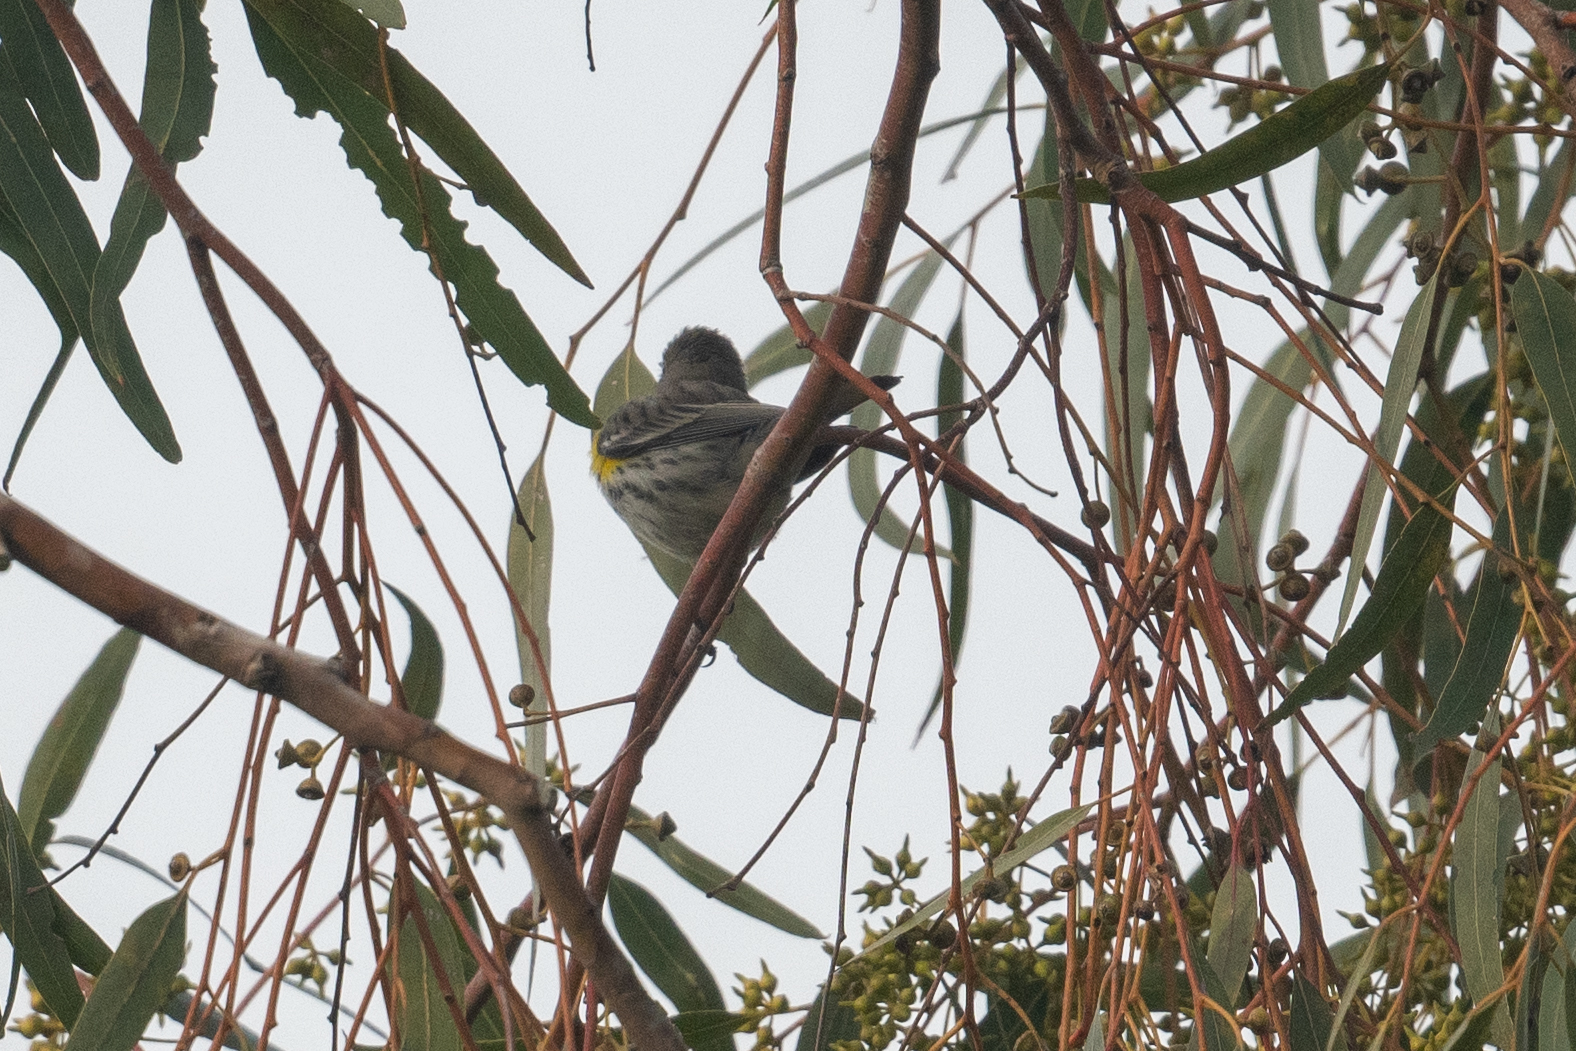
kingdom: Animalia
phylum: Chordata
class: Aves
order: Passeriformes
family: Parulidae
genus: Setophaga
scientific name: Setophaga coronata
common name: Myrtle warbler
